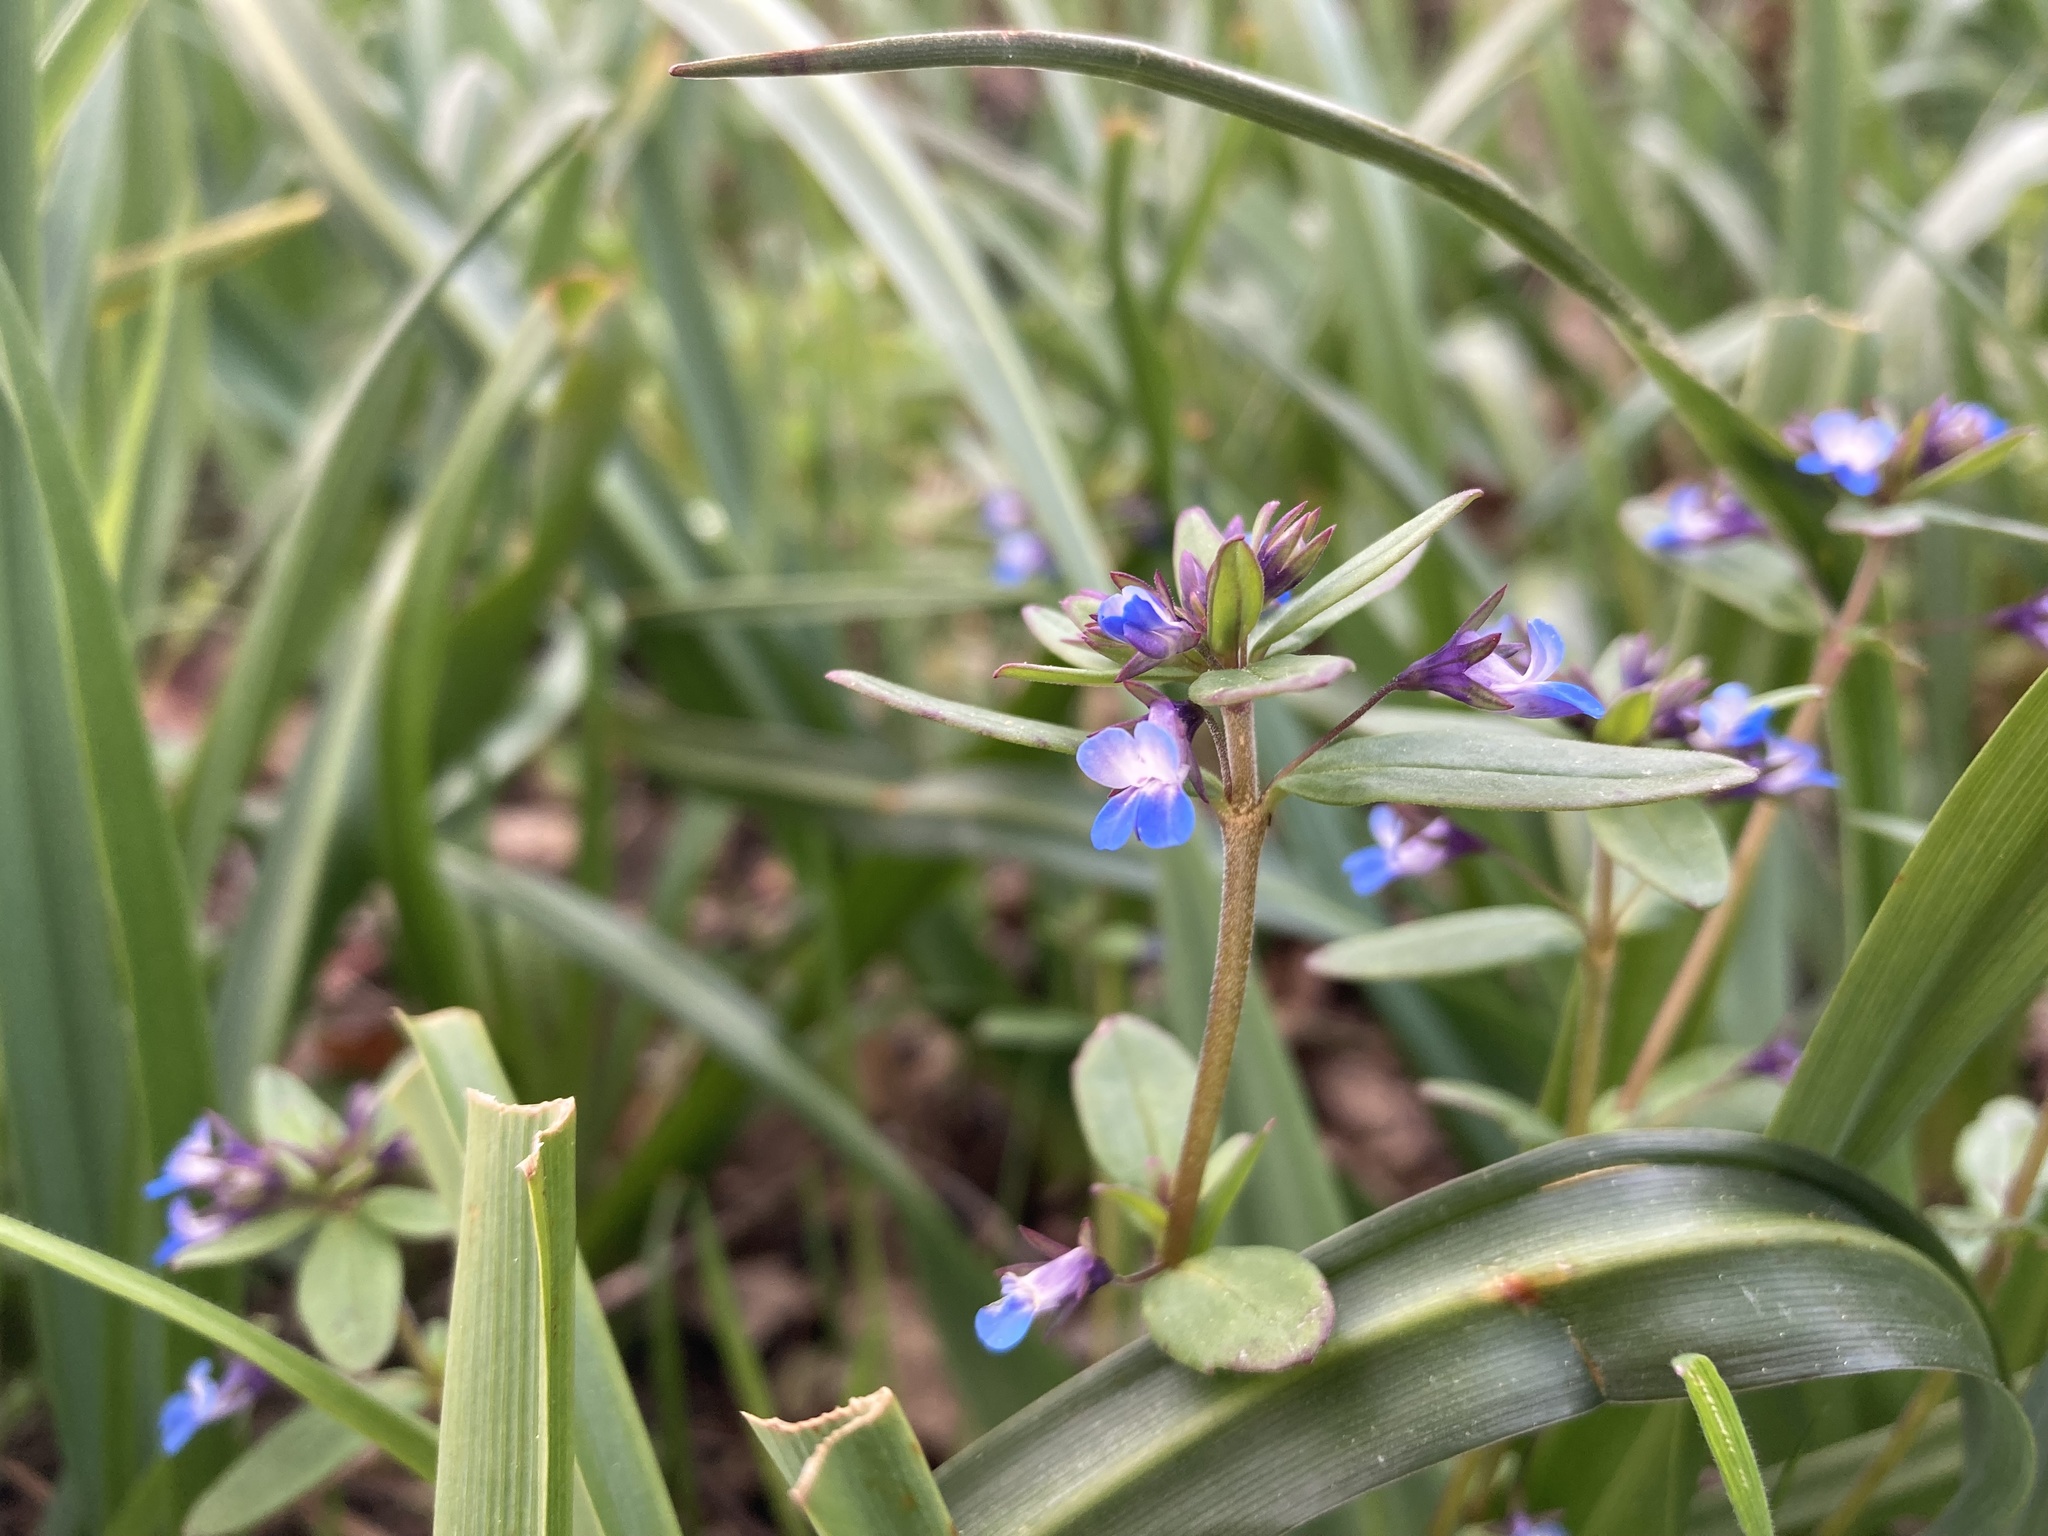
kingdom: Plantae
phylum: Tracheophyta
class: Magnoliopsida
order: Lamiales
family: Plantaginaceae
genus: Collinsia
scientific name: Collinsia parviflora
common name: Blue-lips
